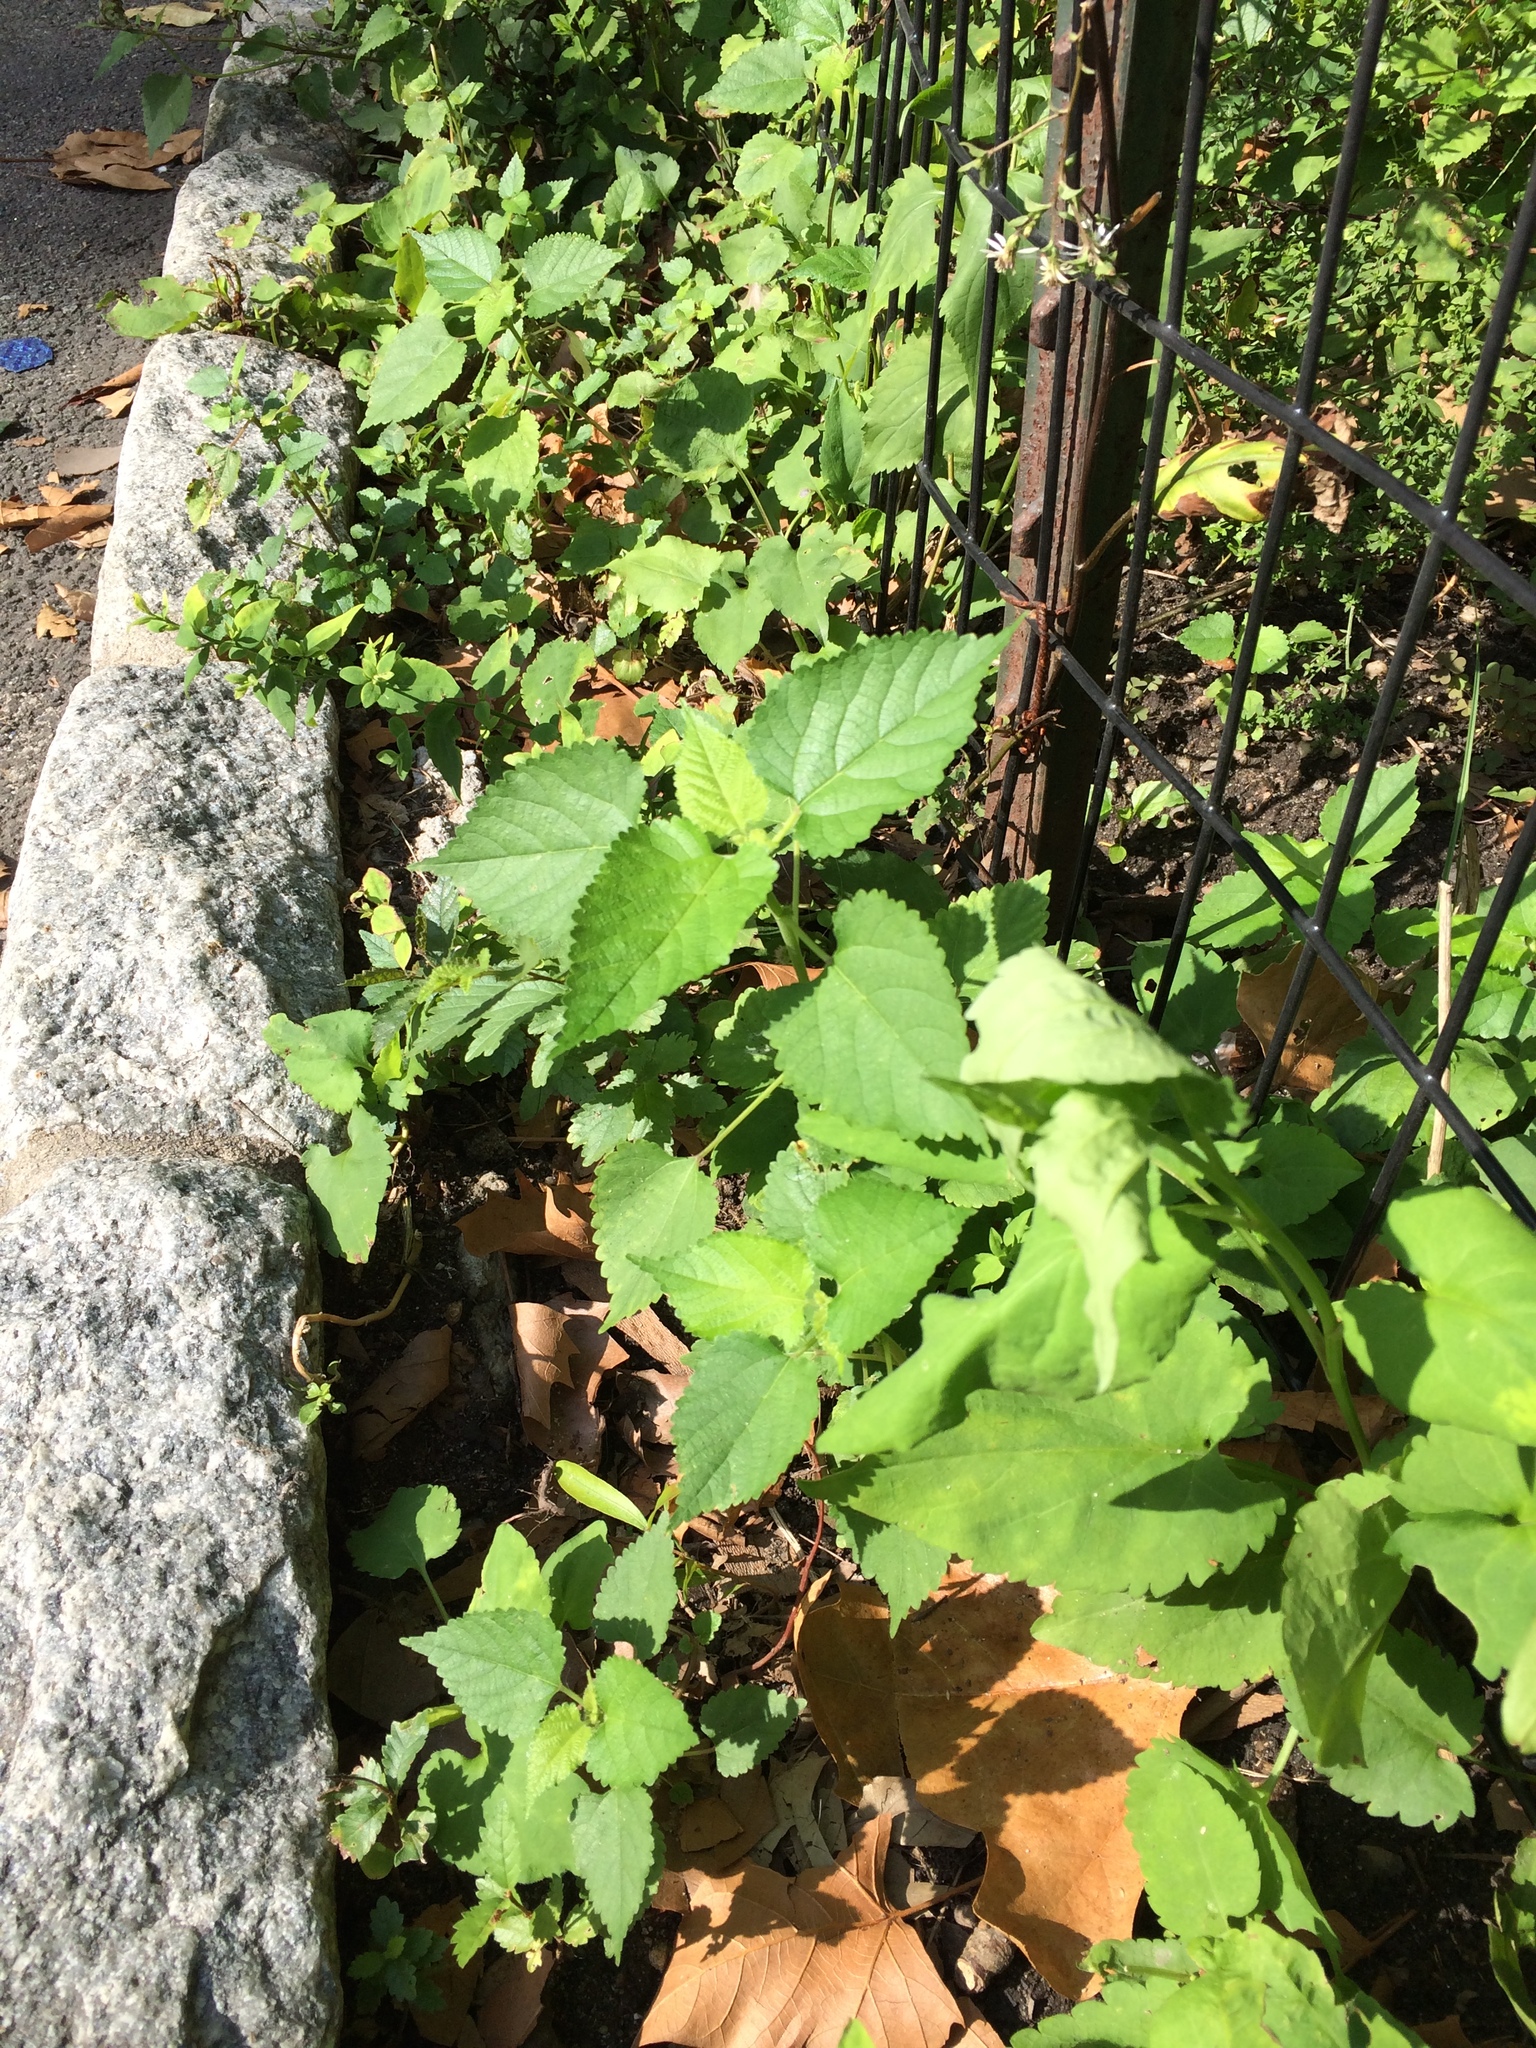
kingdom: Plantae
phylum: Tracheophyta
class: Magnoliopsida
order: Rosales
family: Moraceae
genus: Fatoua
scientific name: Fatoua villosa
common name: Hairy crabweed
